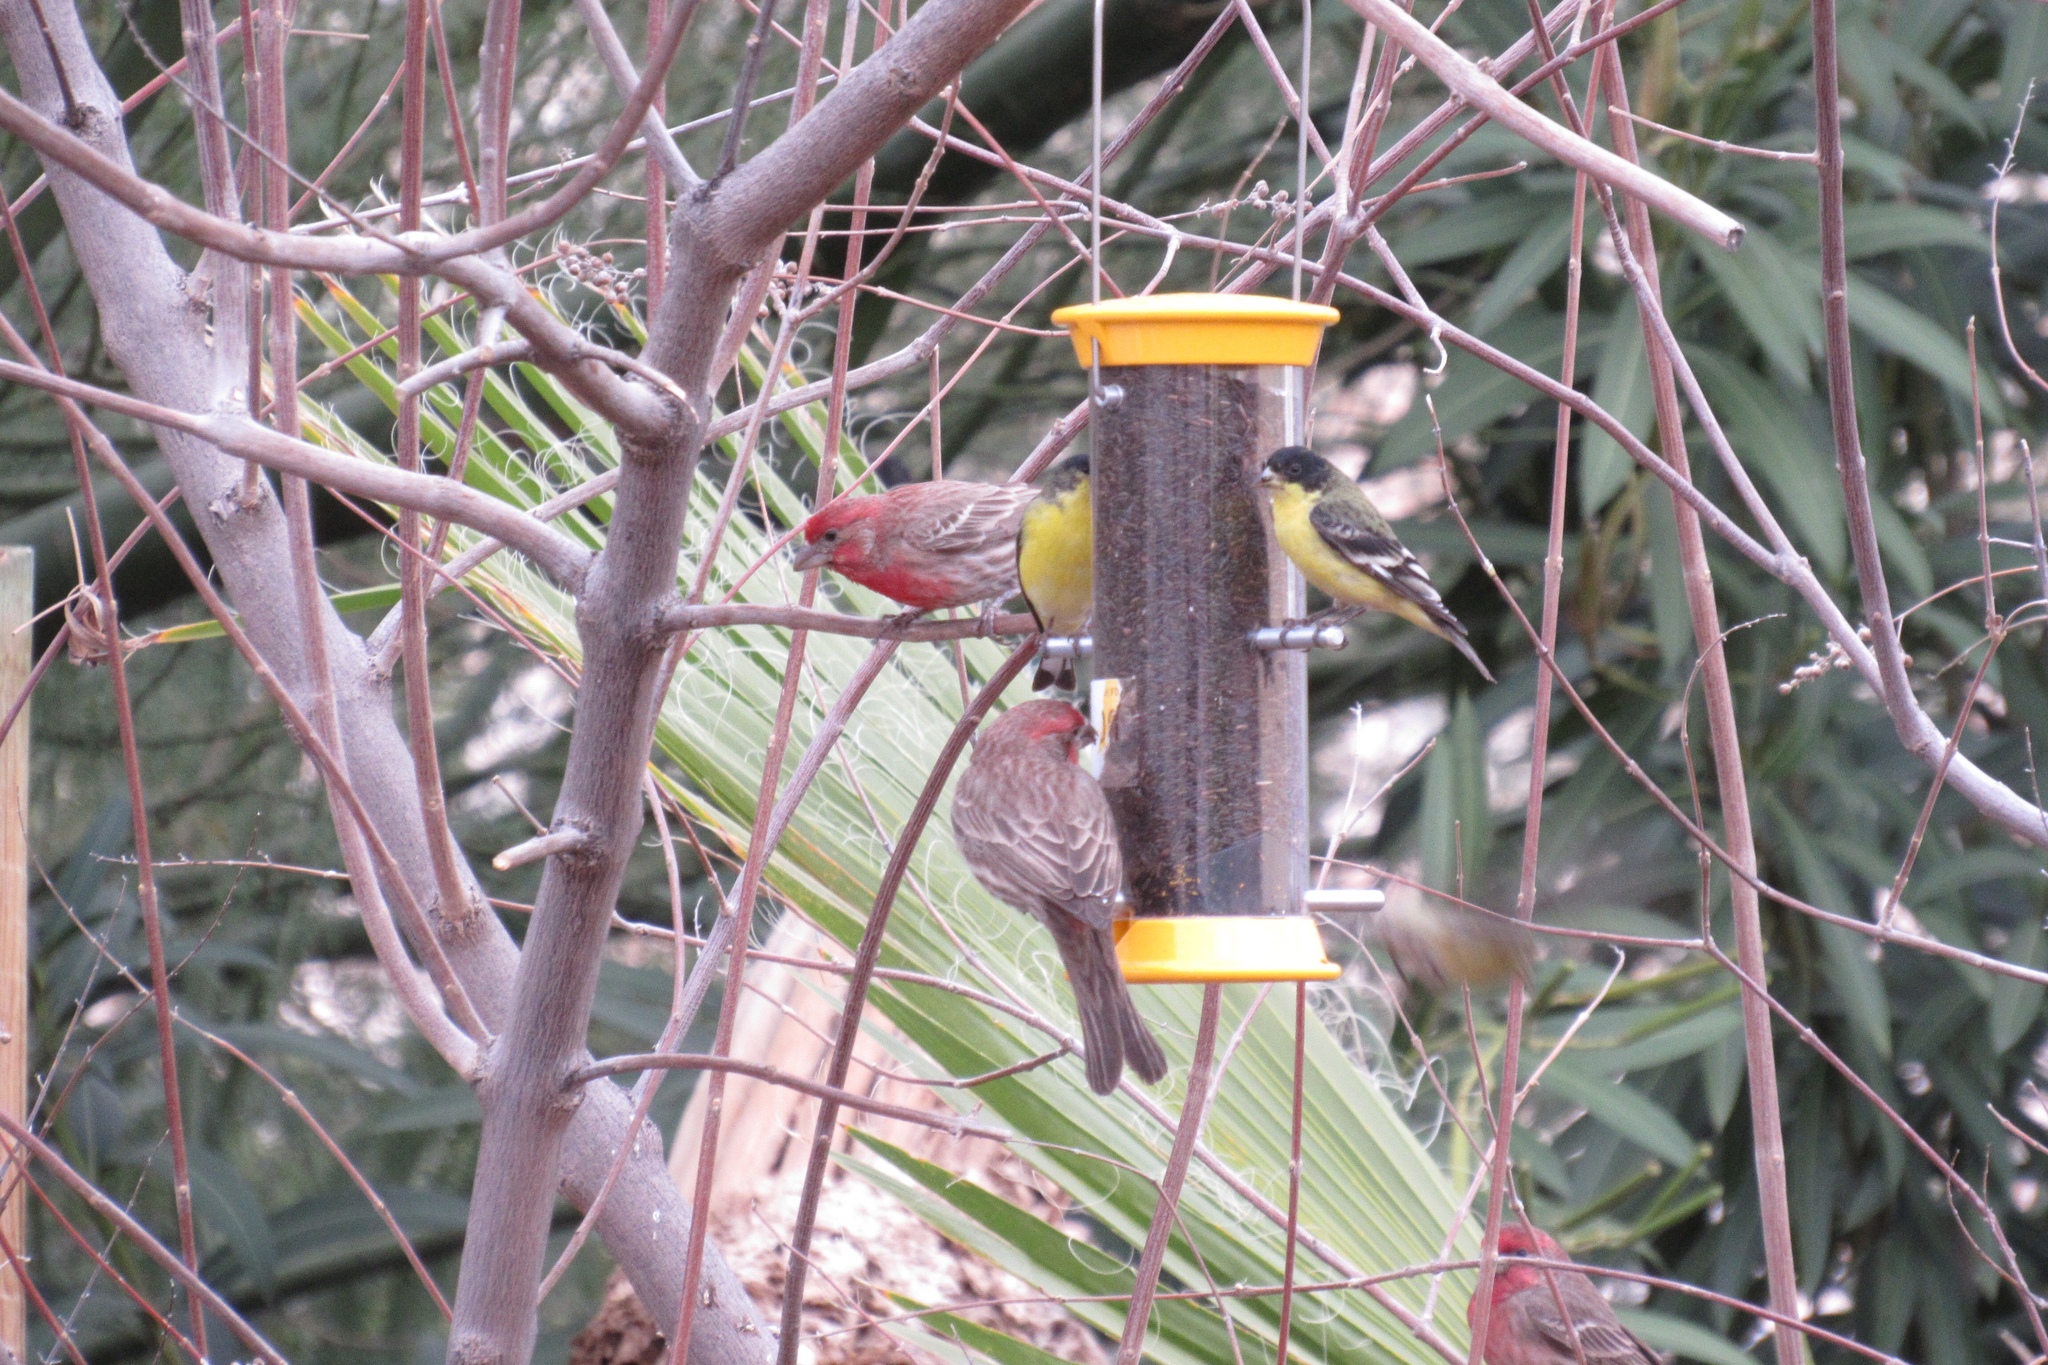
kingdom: Animalia
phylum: Chordata
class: Aves
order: Passeriformes
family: Fringillidae
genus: Haemorhous
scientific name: Haemorhous mexicanus
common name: House finch
